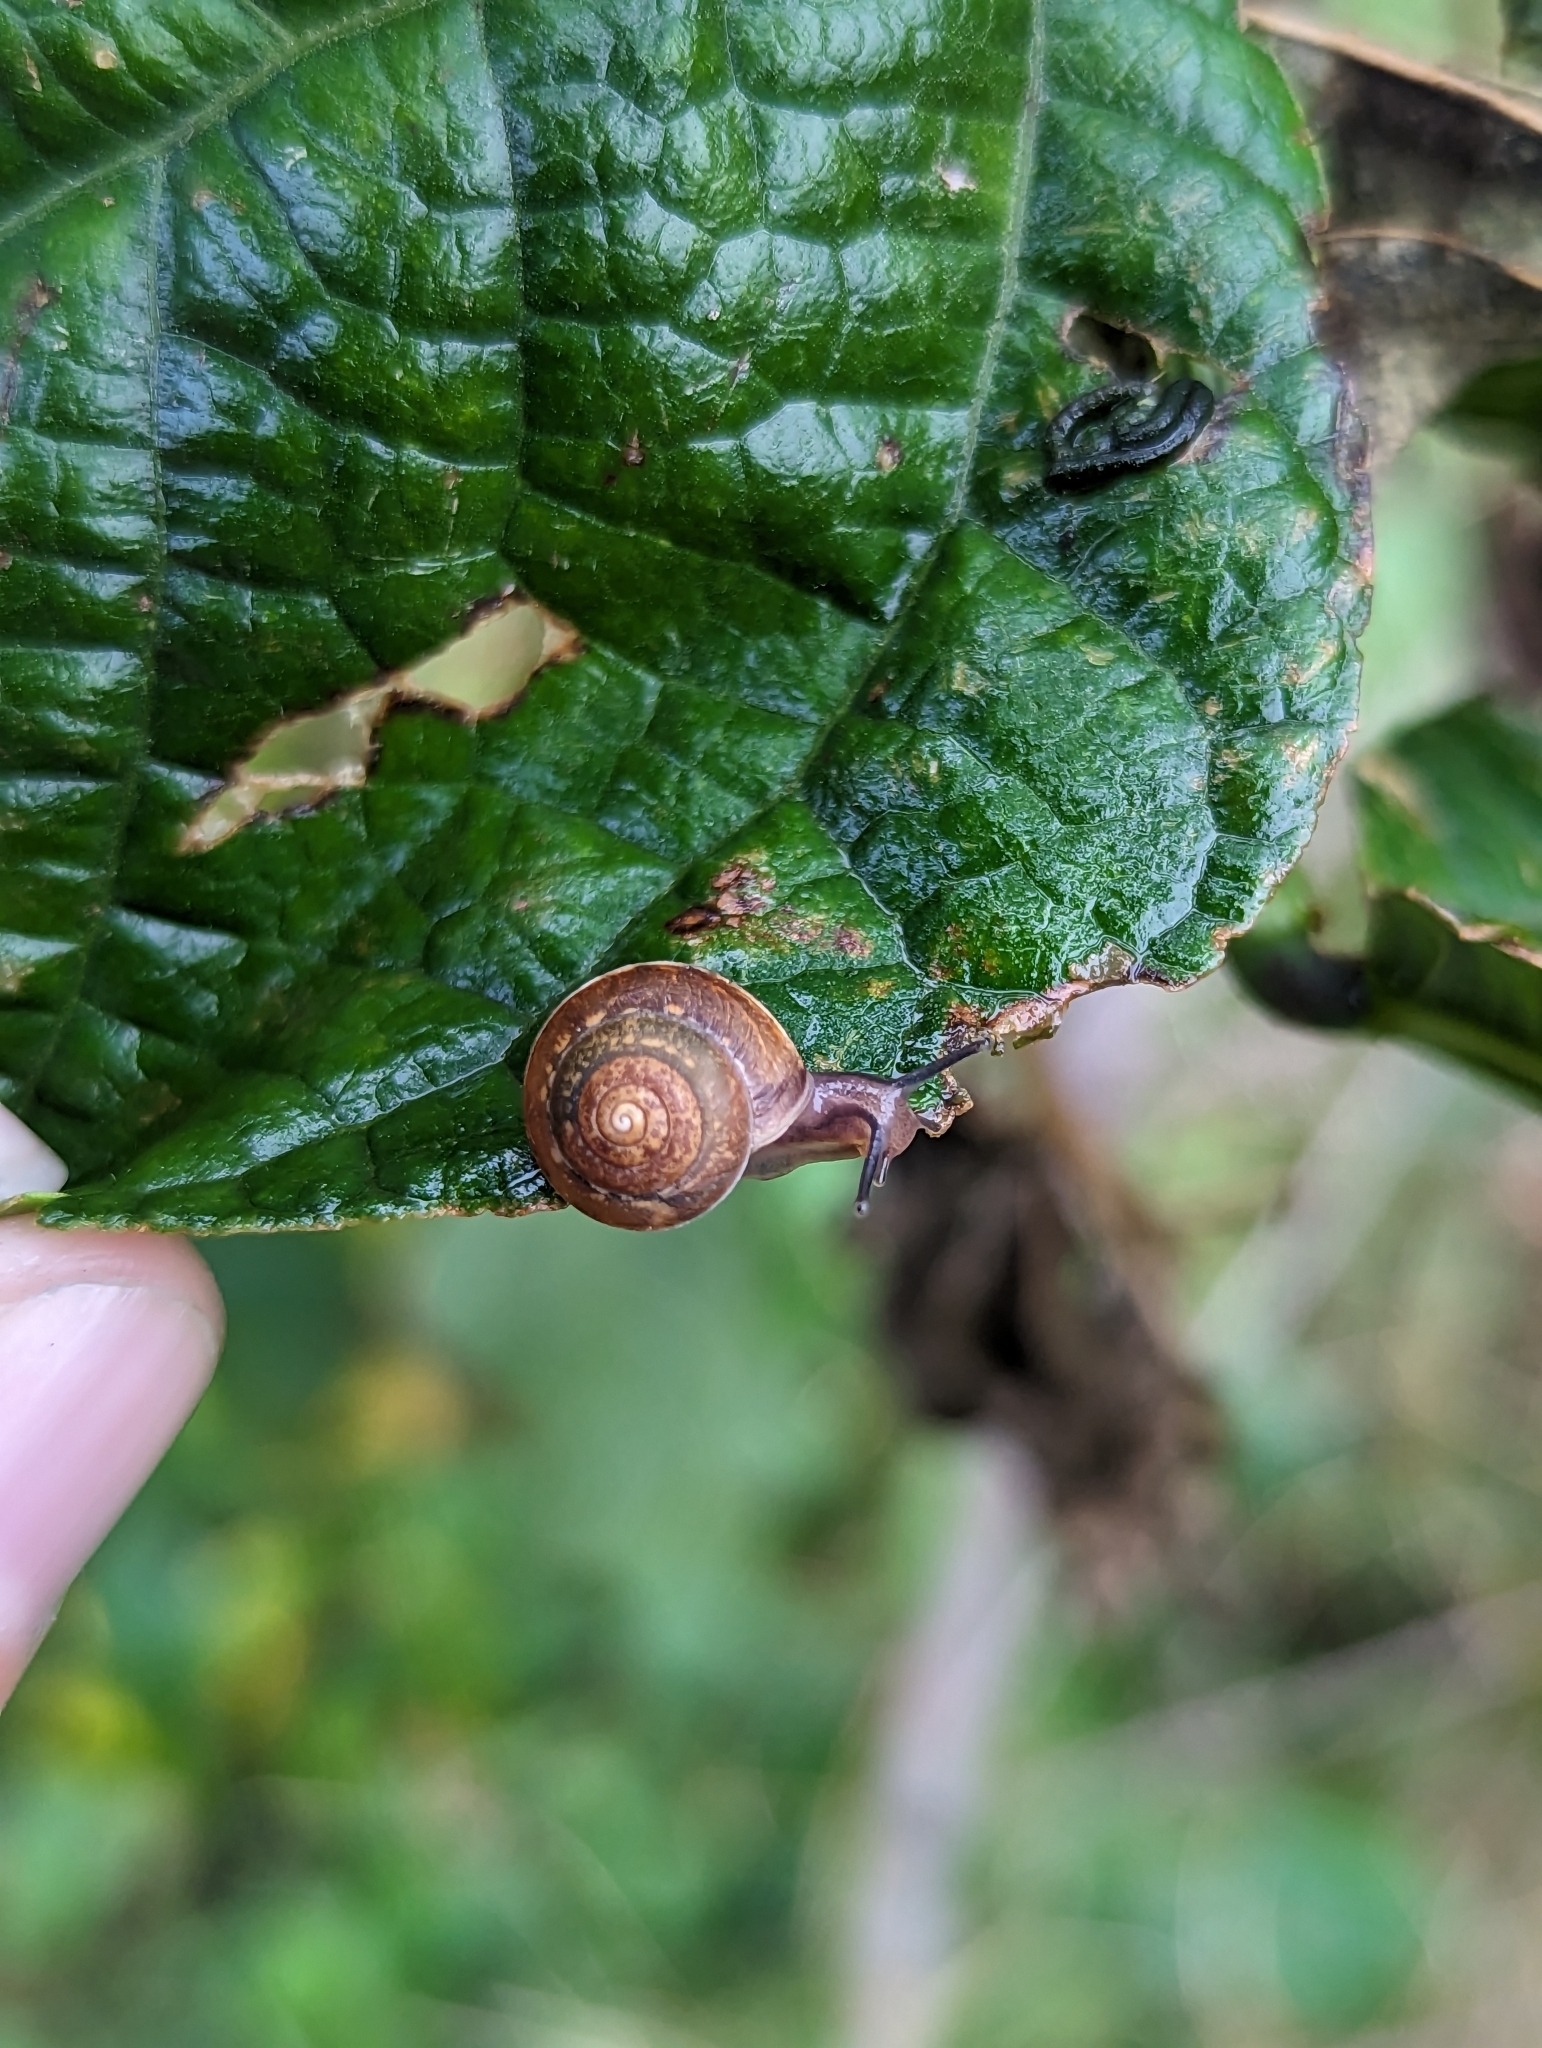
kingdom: Animalia
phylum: Mollusca
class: Gastropoda
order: Stylommatophora
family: Hygromiidae
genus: Hygromia
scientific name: Hygromia cinctella
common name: Girdled snail
